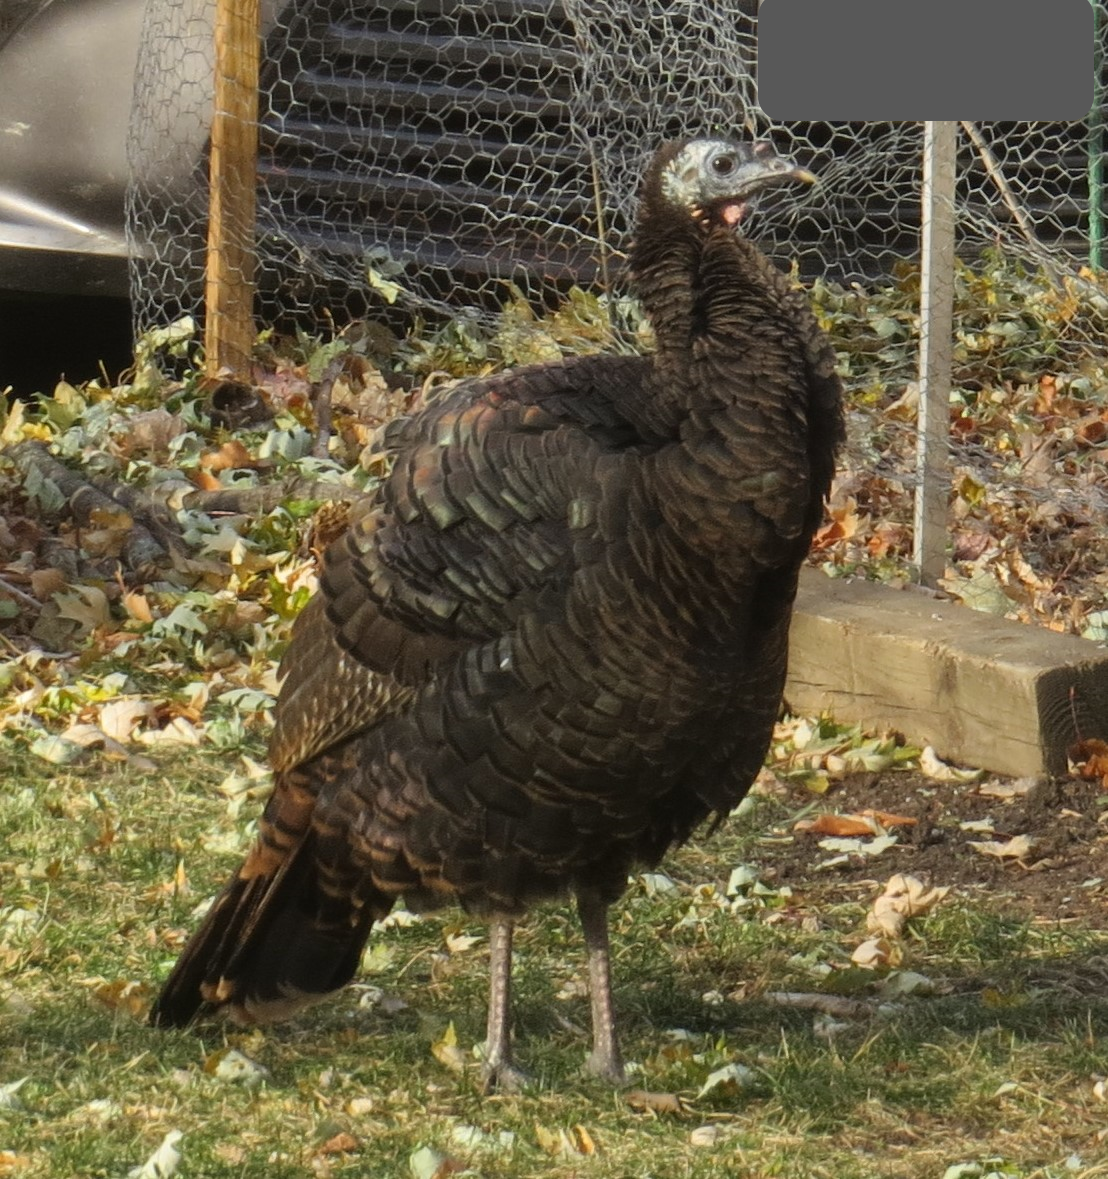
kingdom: Animalia
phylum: Chordata
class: Aves
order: Galliformes
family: Phasianidae
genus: Meleagris
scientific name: Meleagris gallopavo
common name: Wild turkey
